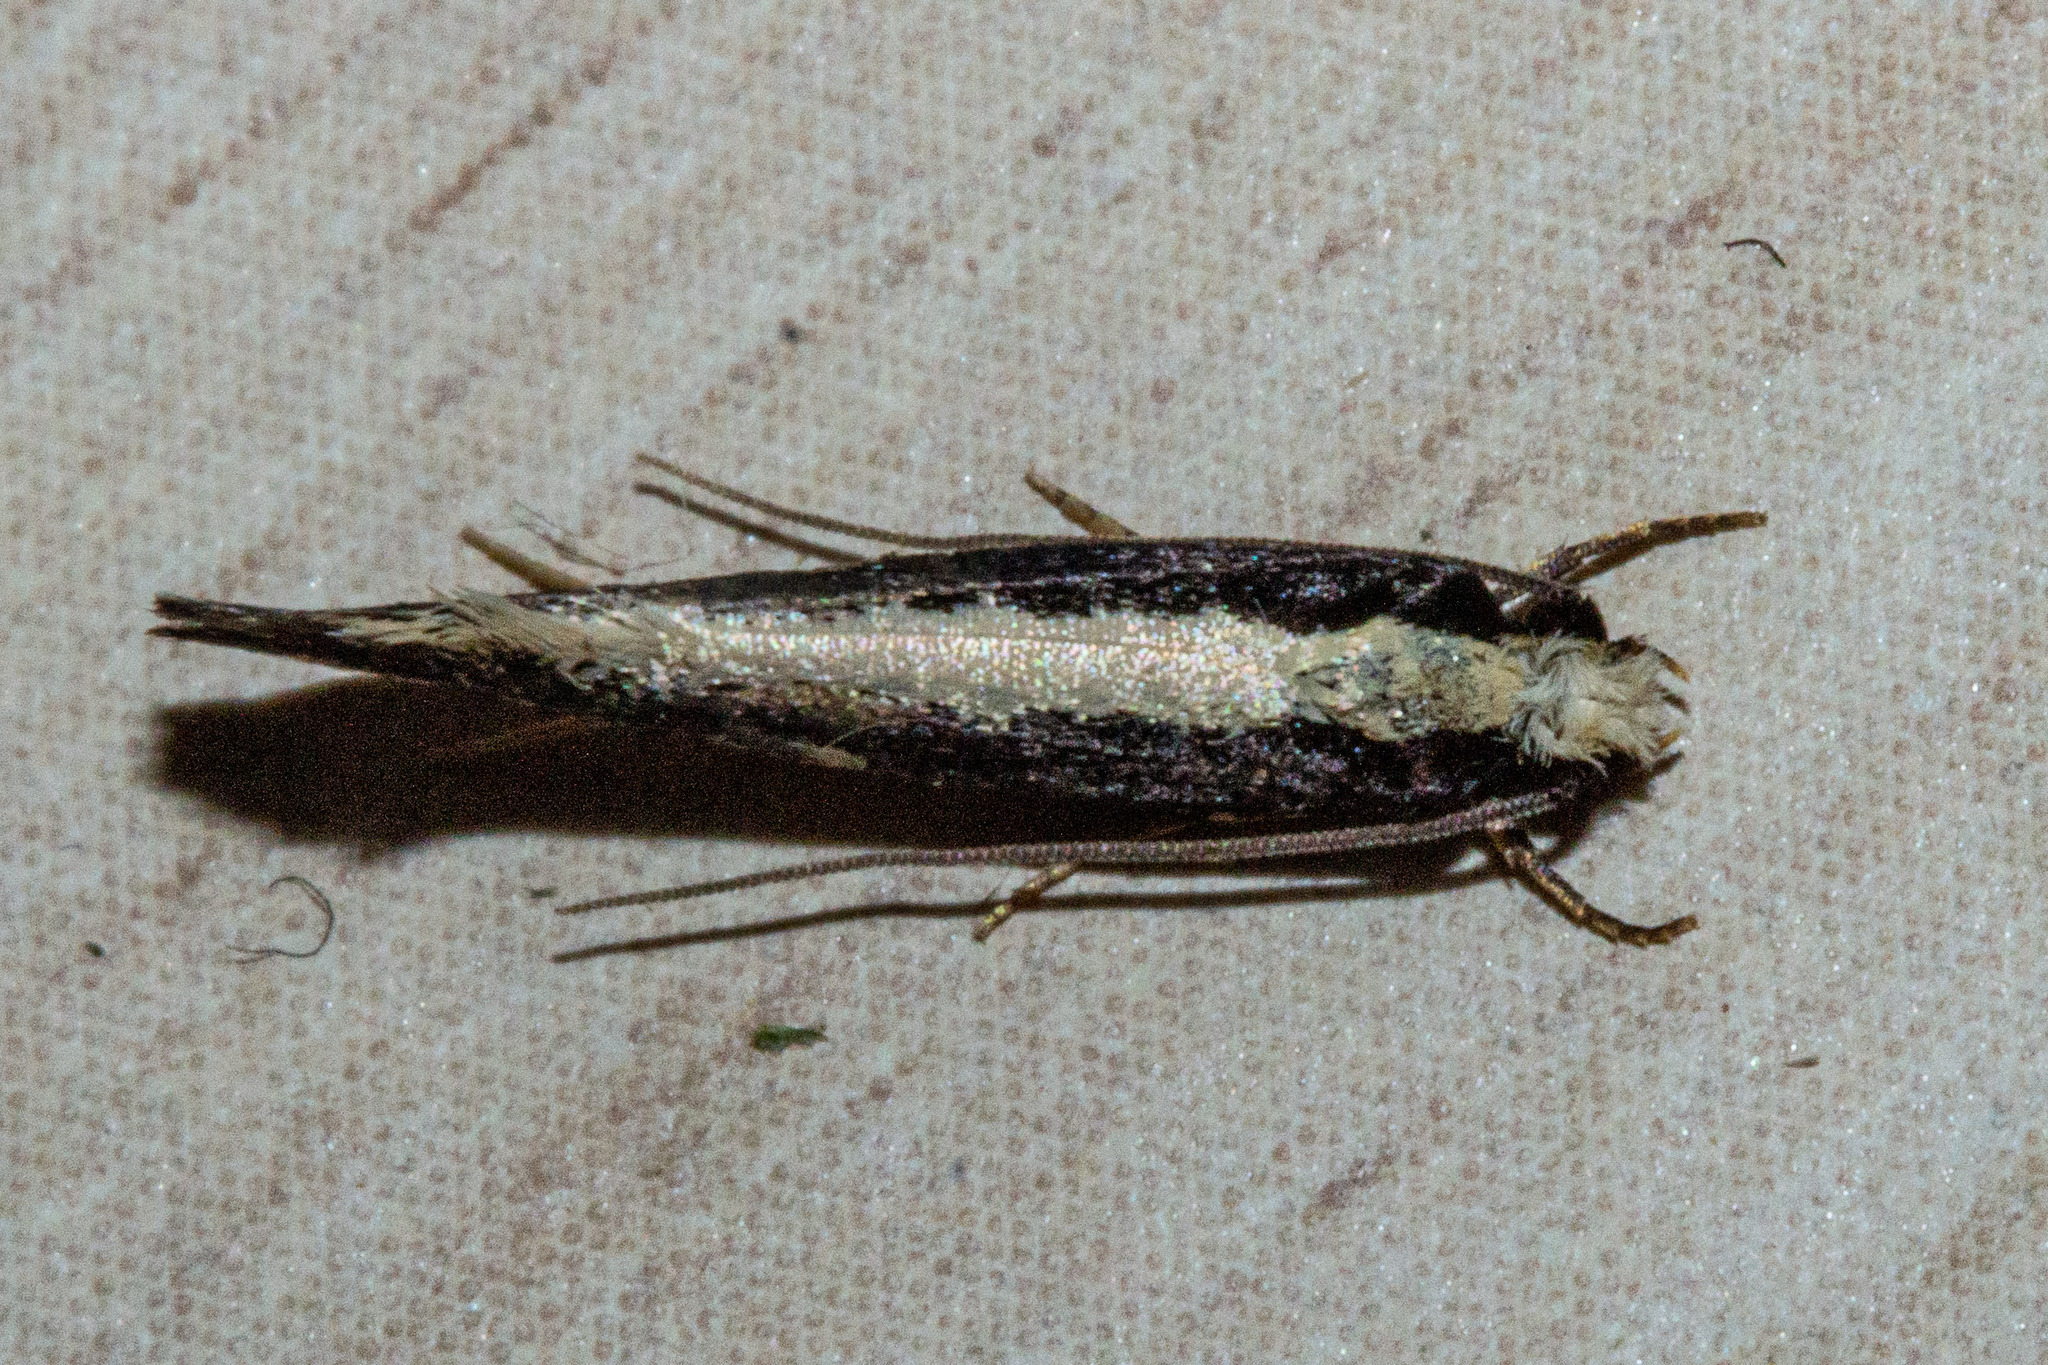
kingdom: Animalia
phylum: Arthropoda
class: Insecta
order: Lepidoptera
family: Tineidae
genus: Monopis
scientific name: Monopis ethelella
